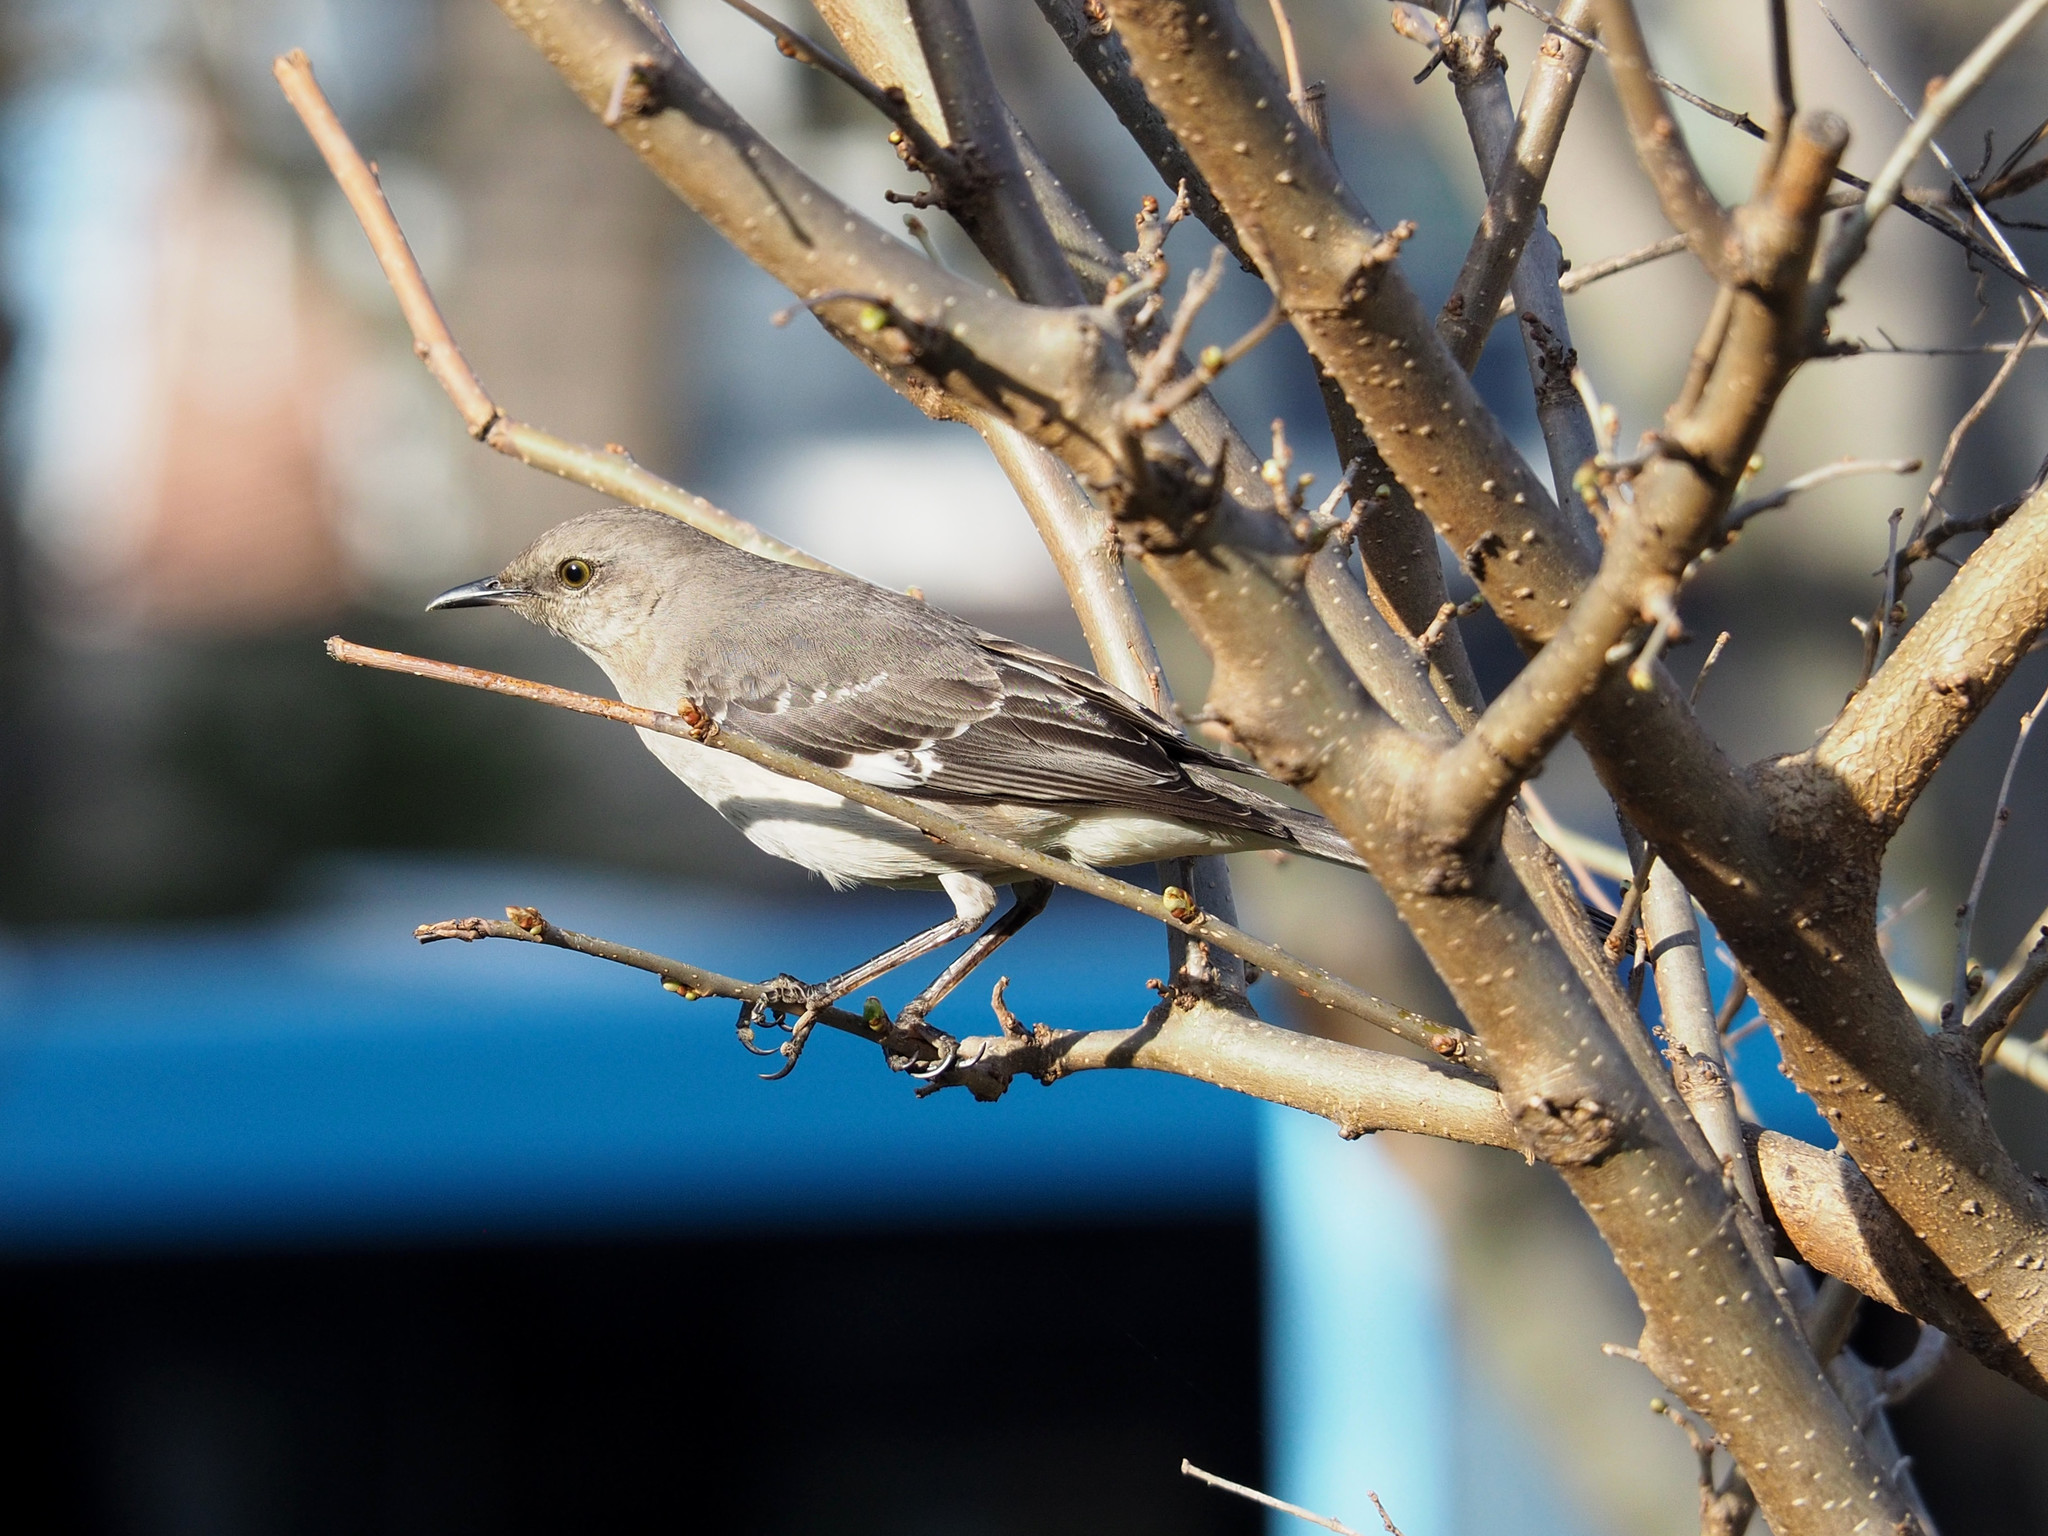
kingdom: Animalia
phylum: Chordata
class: Aves
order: Passeriformes
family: Mimidae
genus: Mimus
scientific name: Mimus polyglottos
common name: Northern mockingbird
